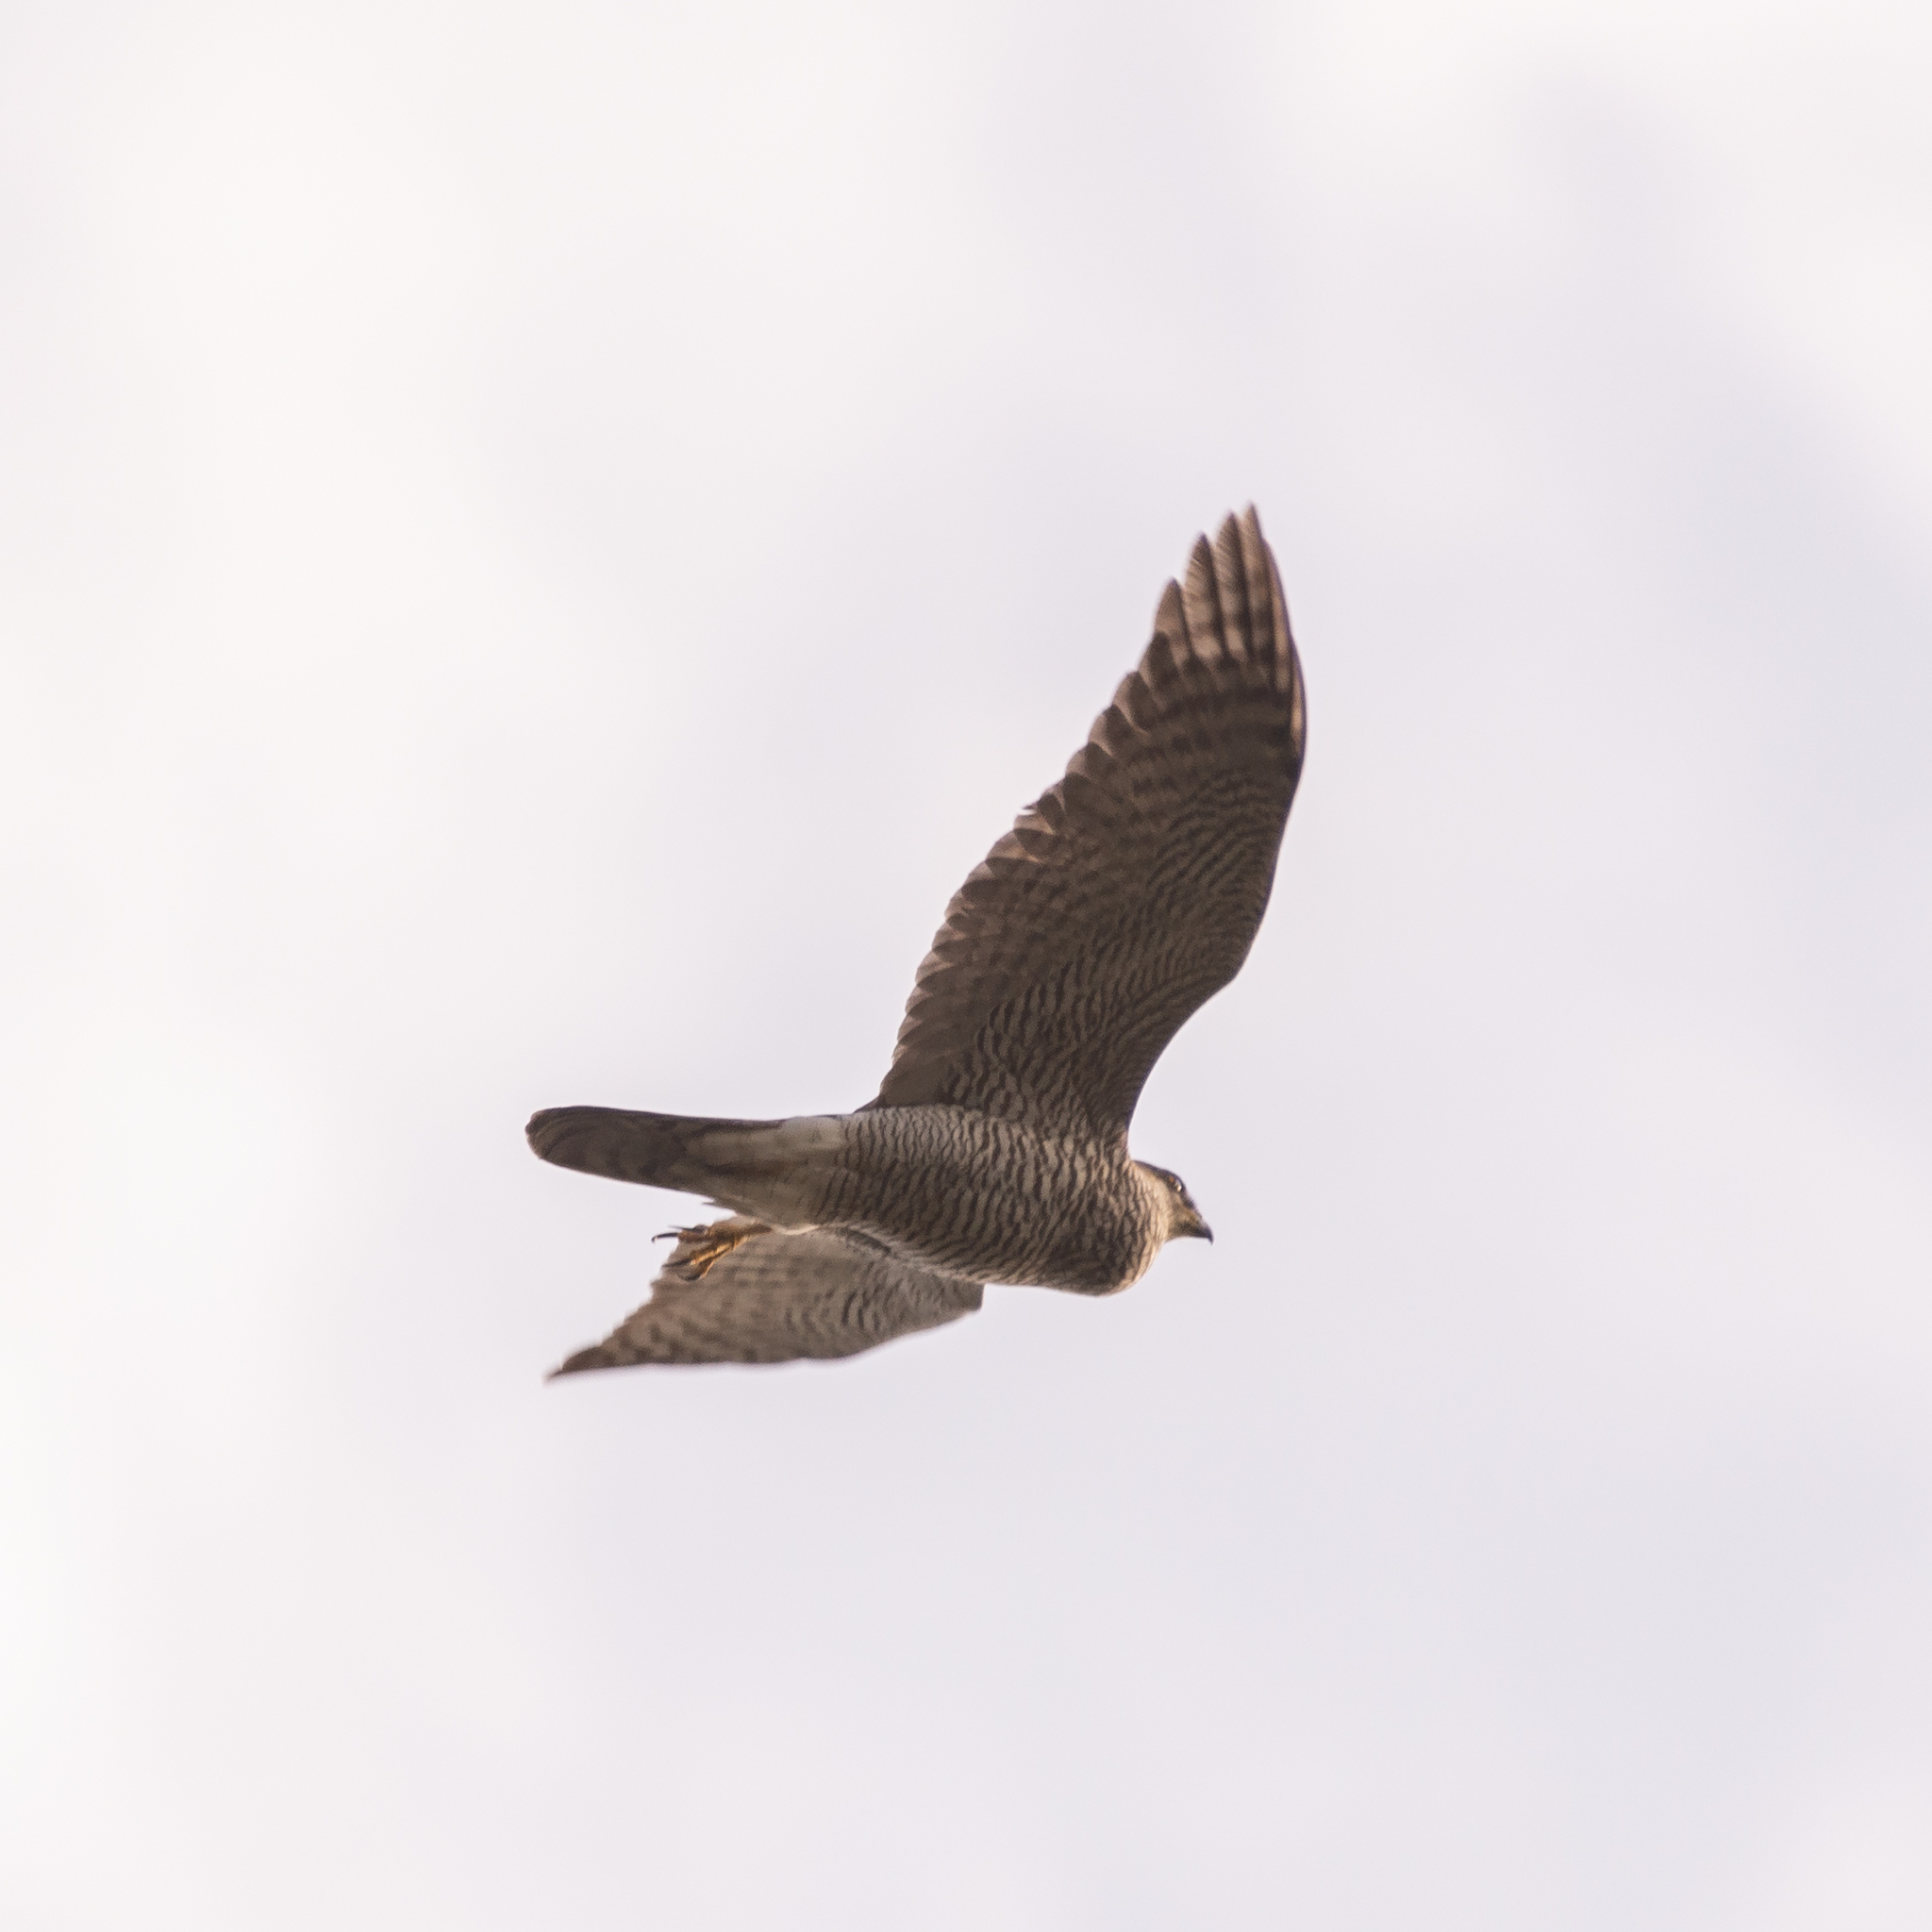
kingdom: Animalia
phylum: Chordata
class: Aves
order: Accipitriformes
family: Accipitridae
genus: Accipiter
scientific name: Accipiter gentilis
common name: Northern goshawk
